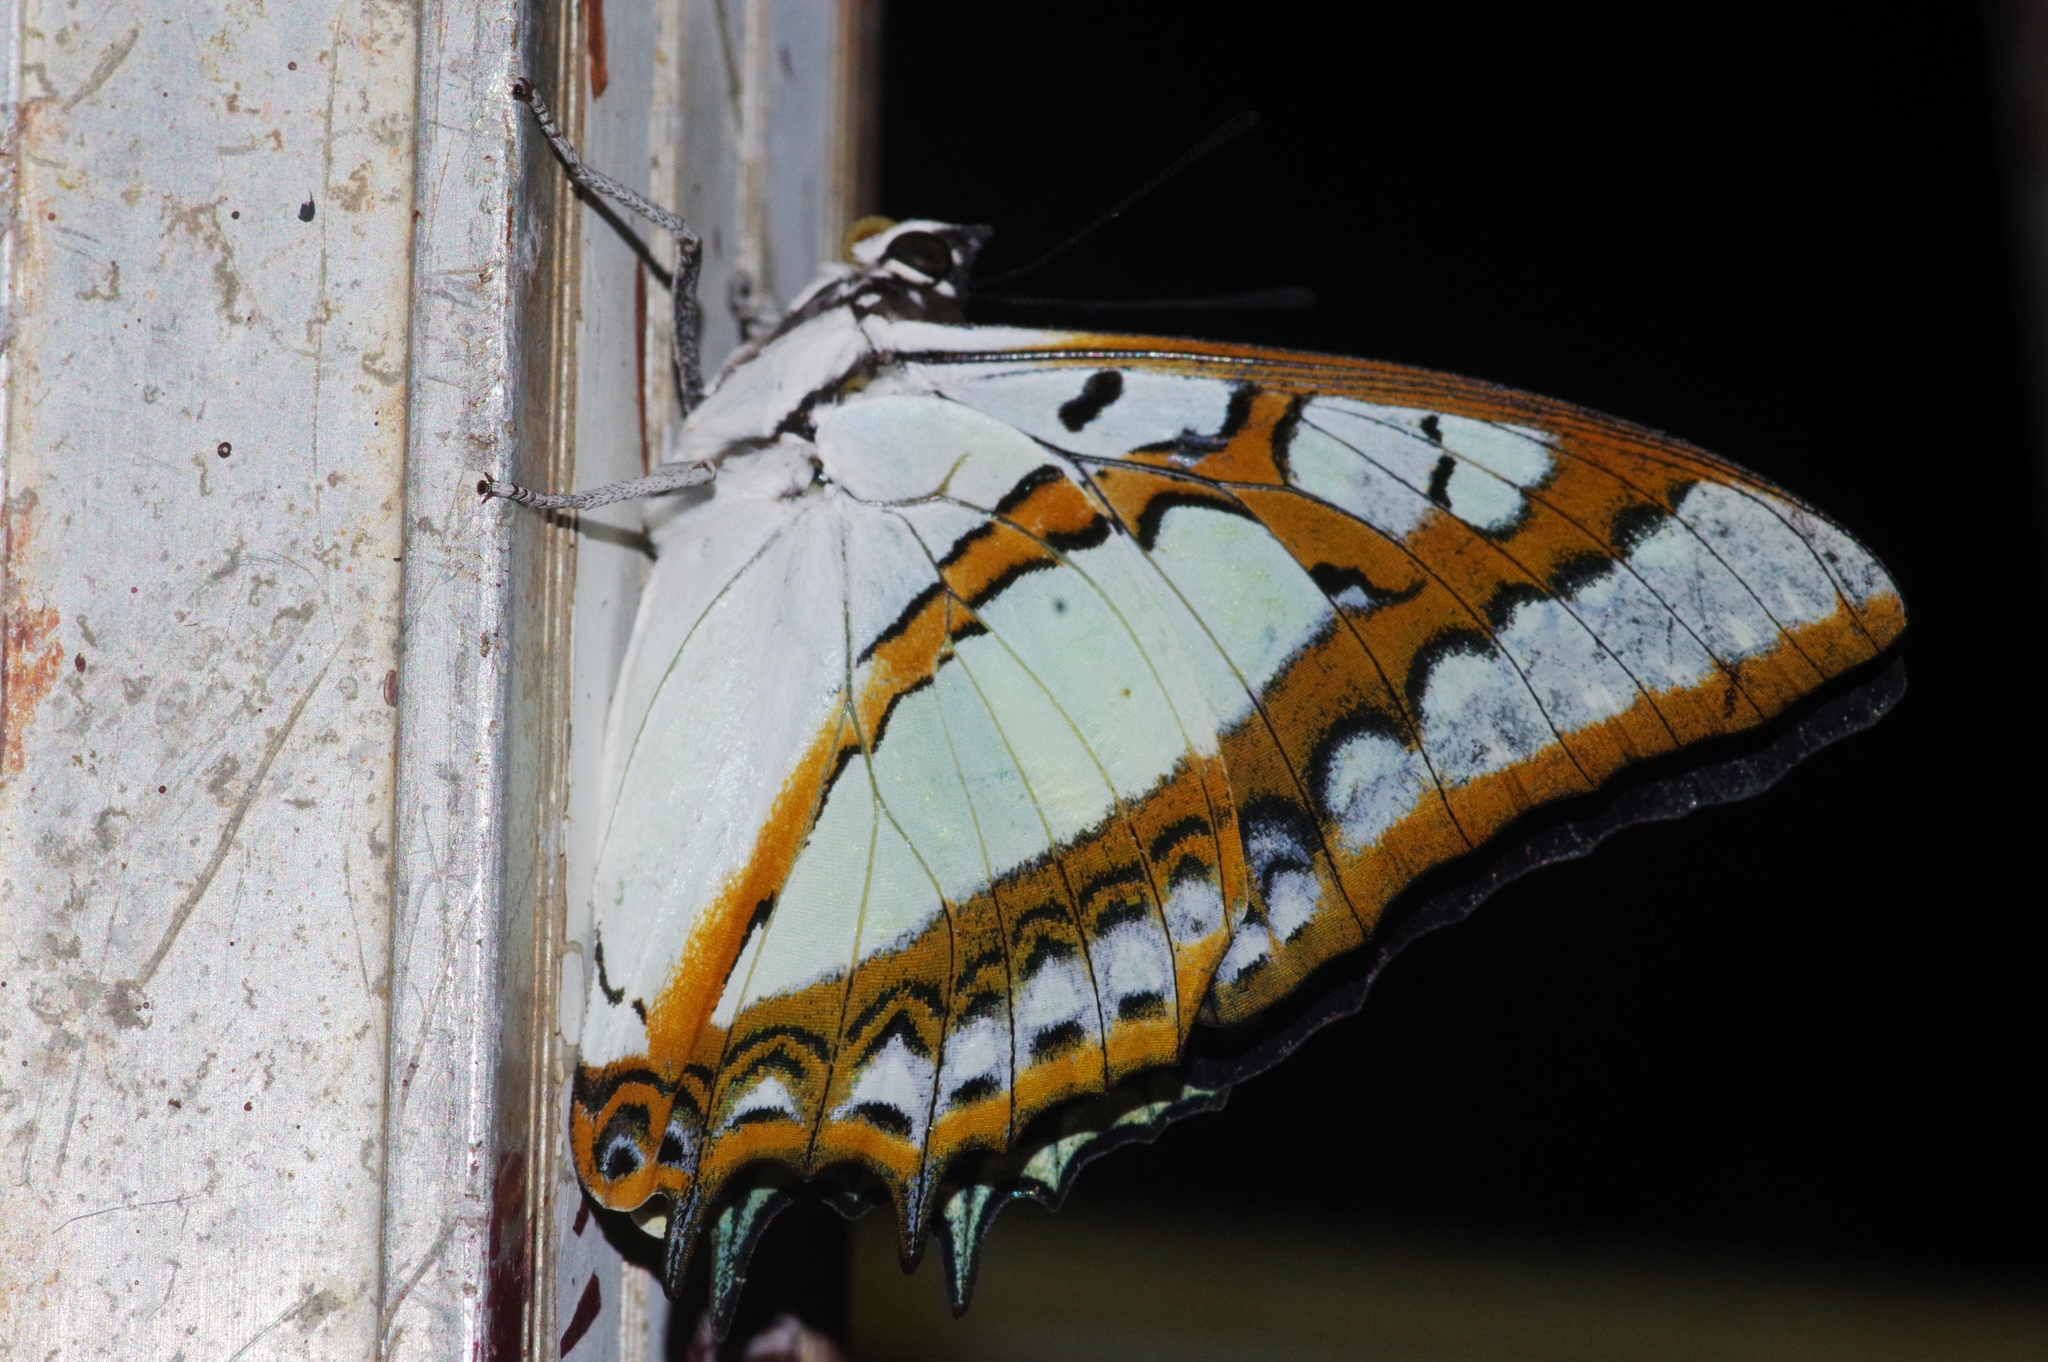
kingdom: Animalia
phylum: Arthropoda
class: Insecta
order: Lepidoptera
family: Nymphalidae
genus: Polyura
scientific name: Polyura
